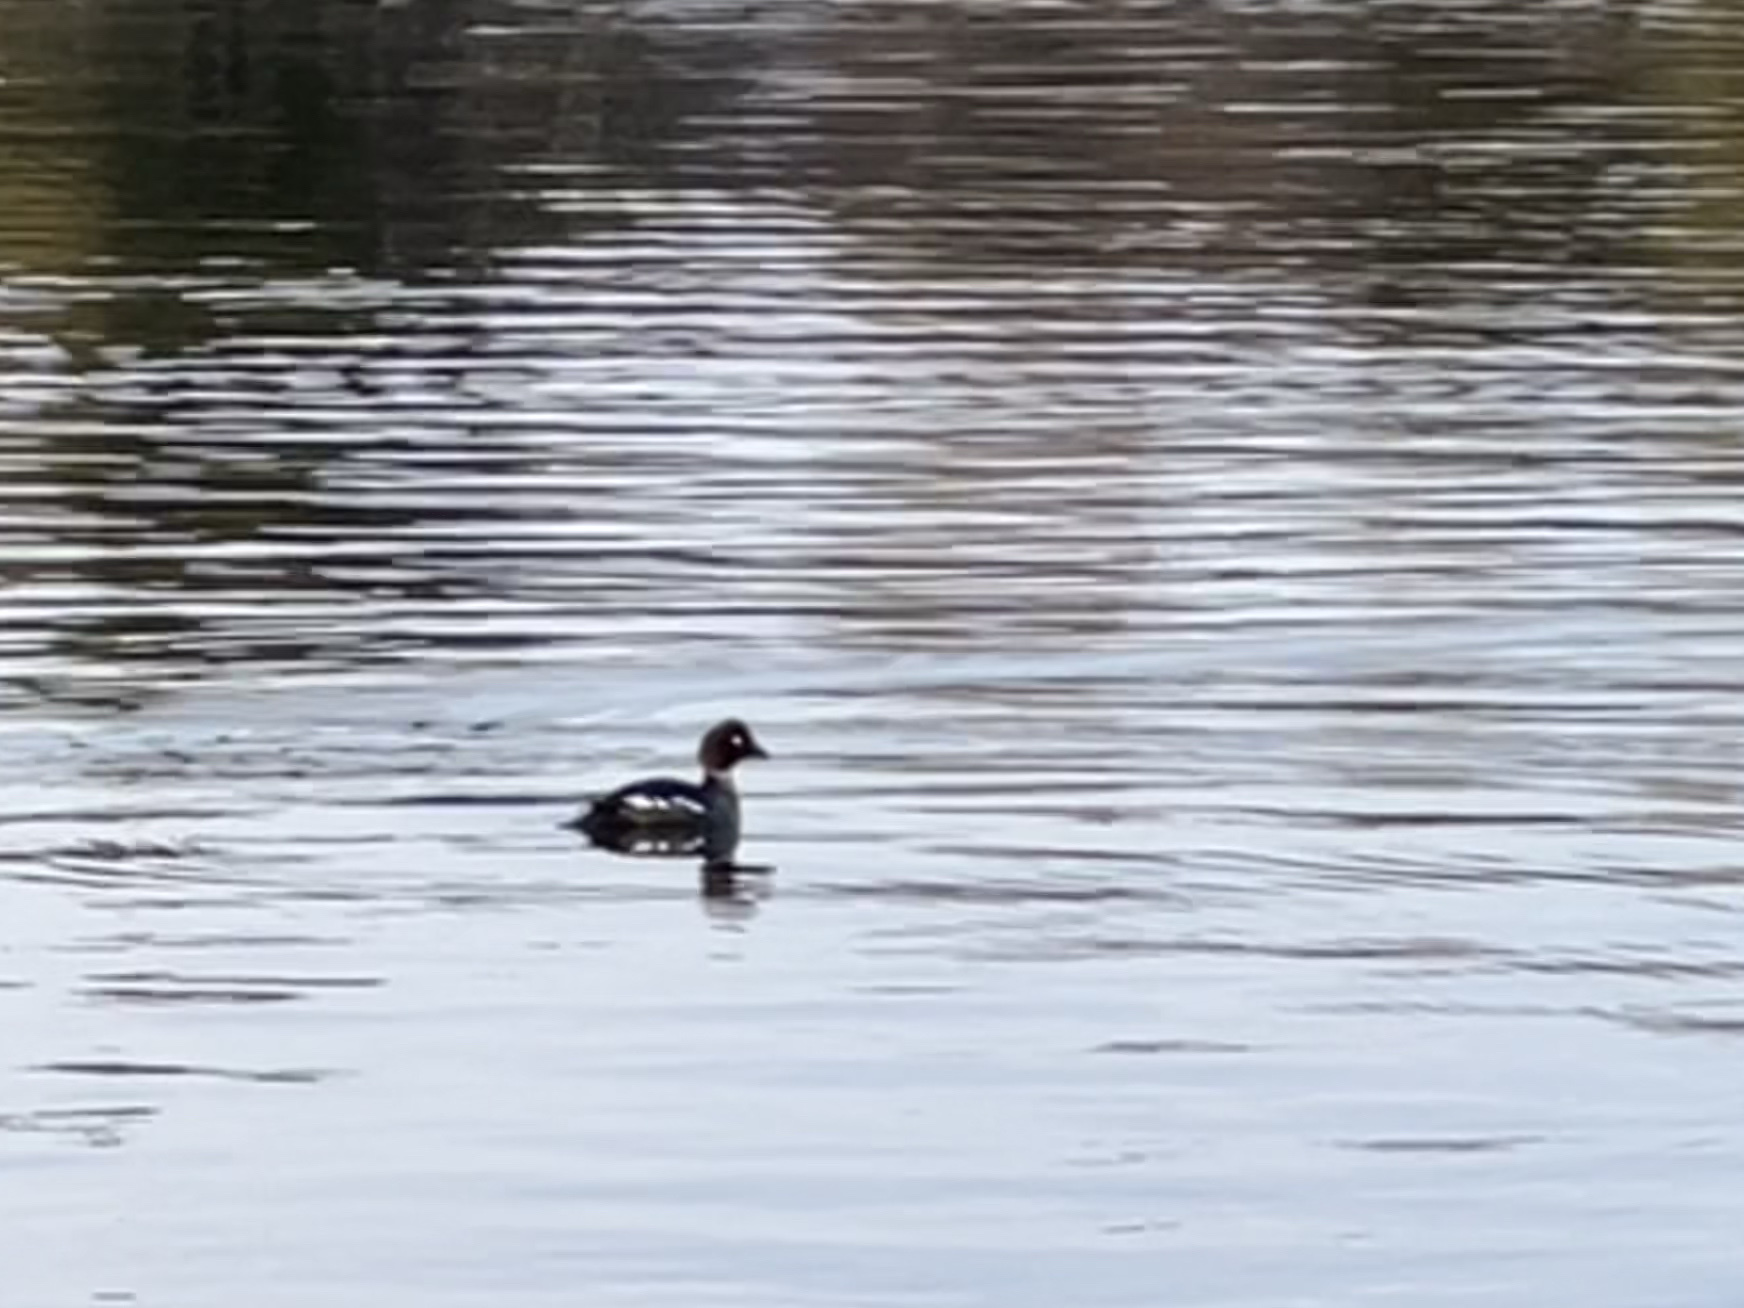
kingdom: Animalia
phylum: Chordata
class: Aves
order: Anseriformes
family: Anatidae
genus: Bucephala
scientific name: Bucephala clangula
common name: Common goldeneye
